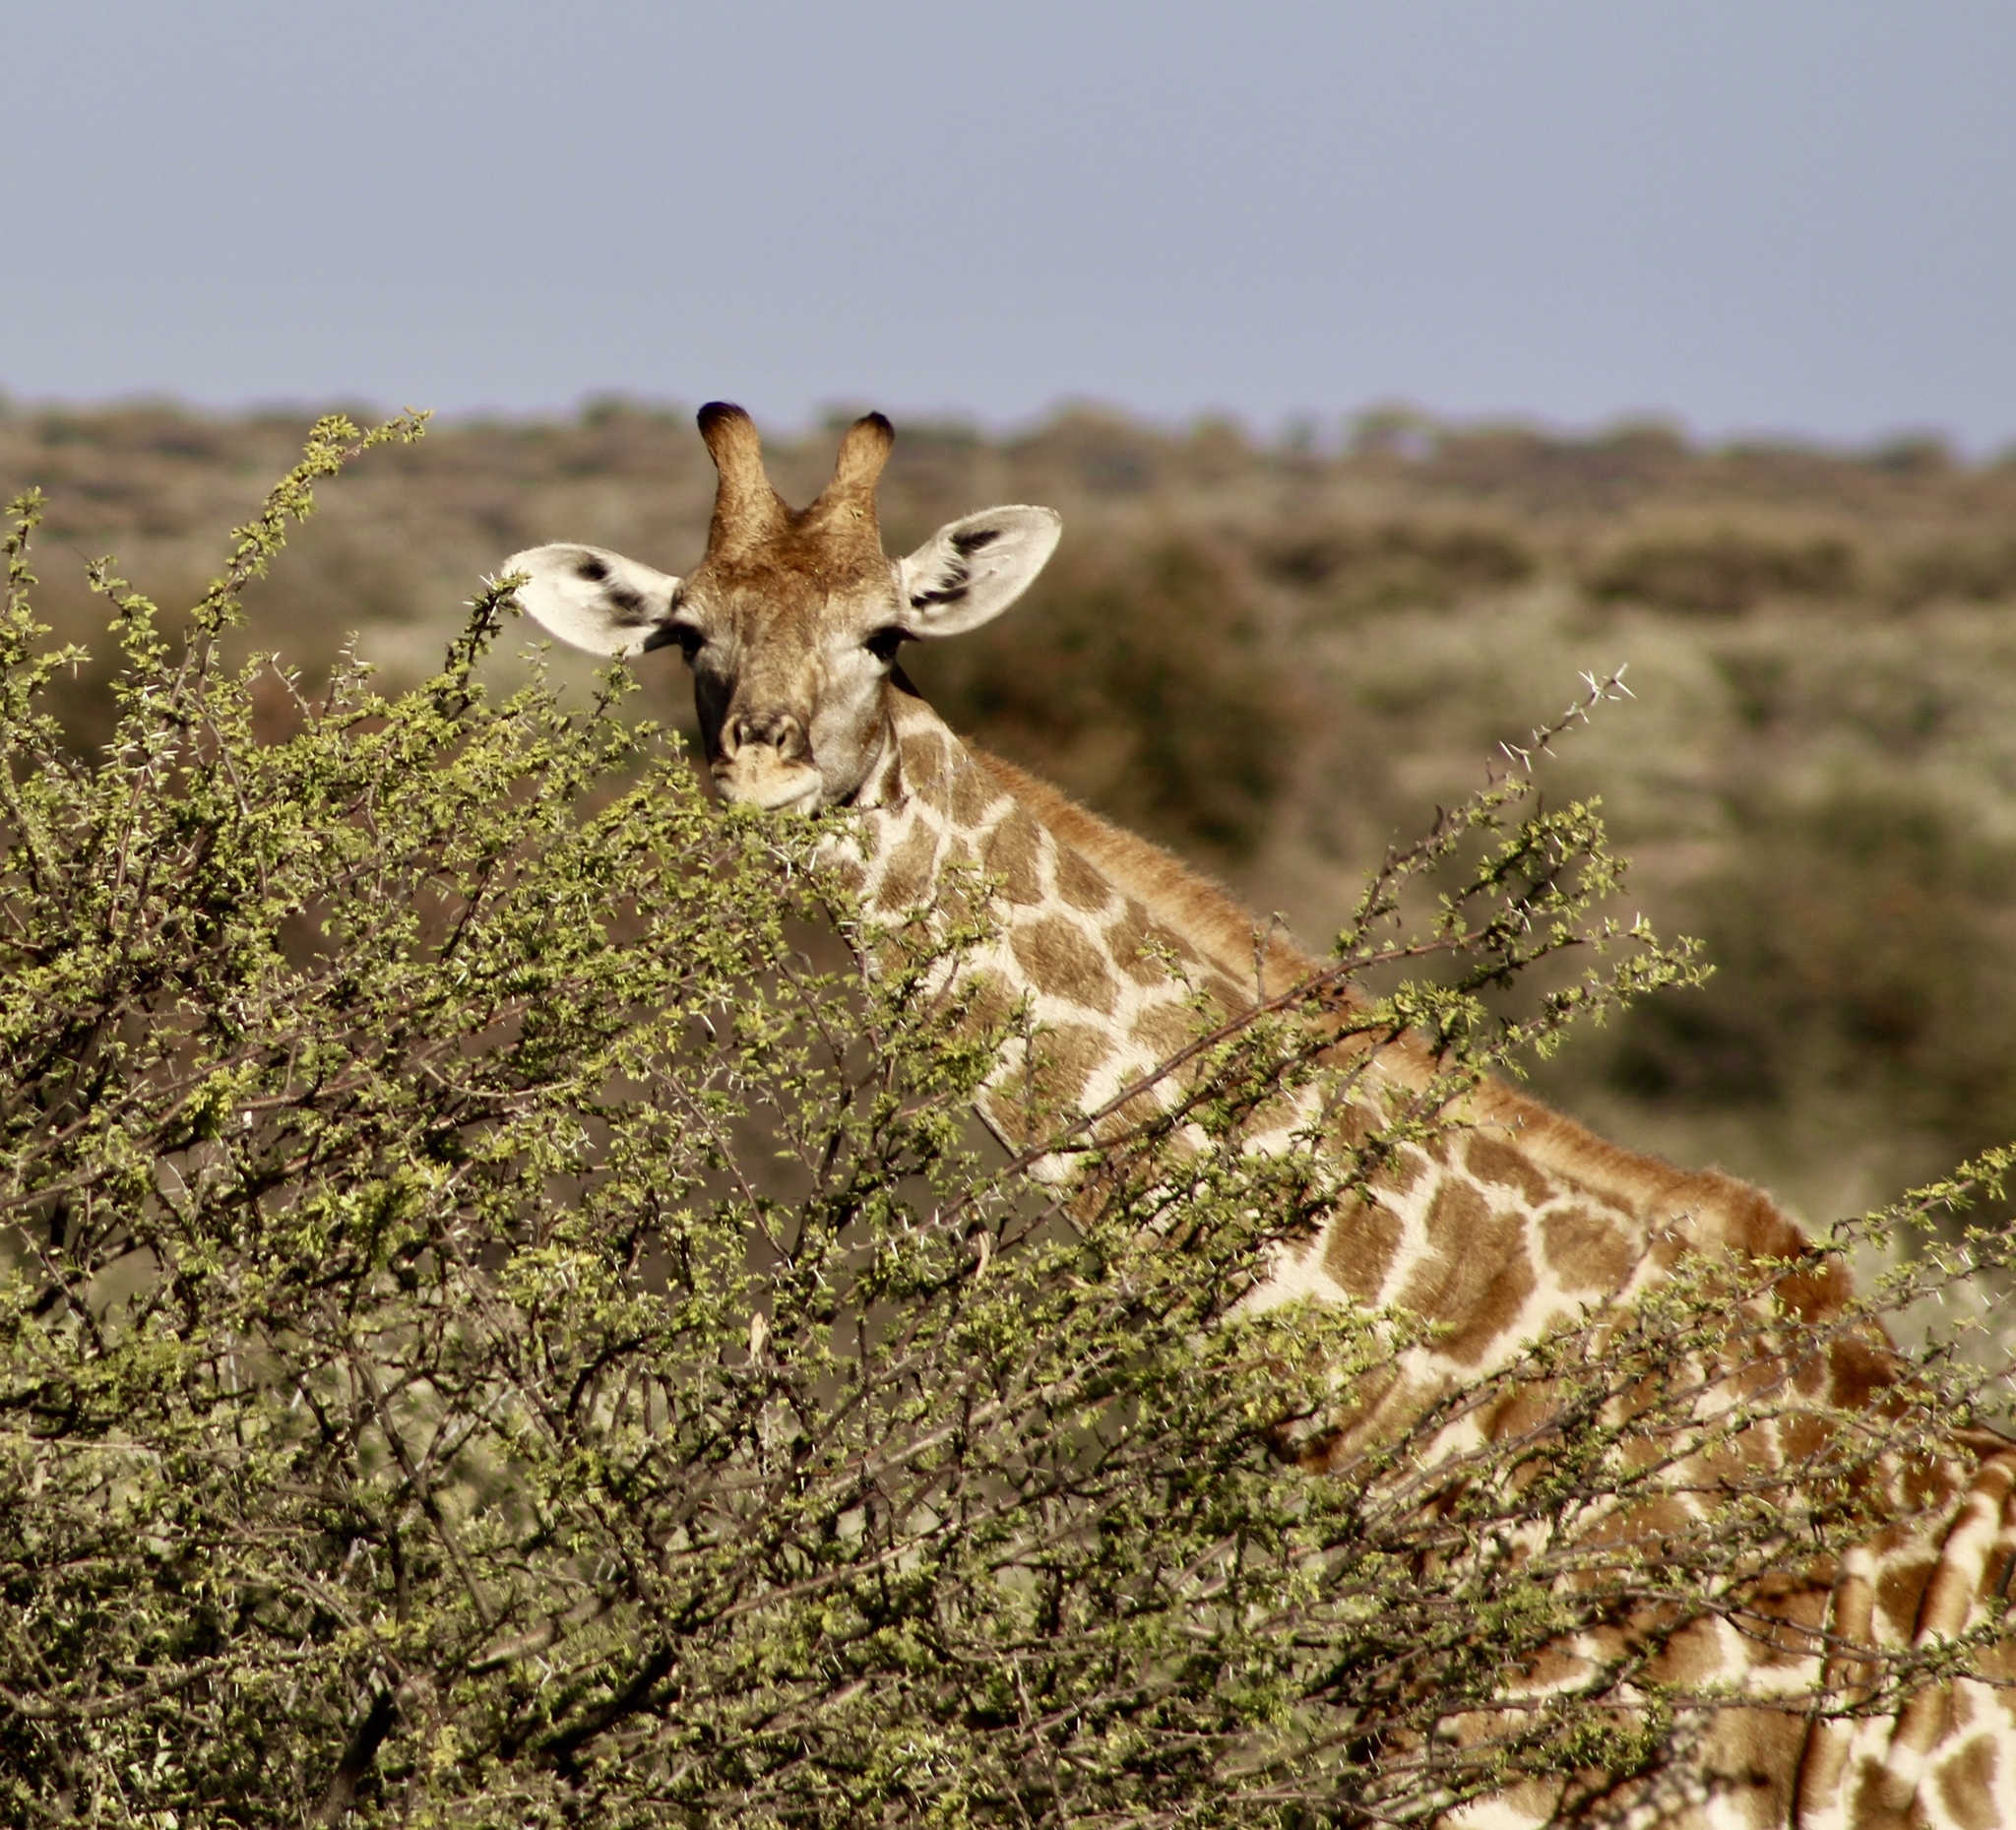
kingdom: Animalia
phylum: Chordata
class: Mammalia
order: Artiodactyla
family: Giraffidae
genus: Giraffa
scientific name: Giraffa giraffa
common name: Southern giraffe
